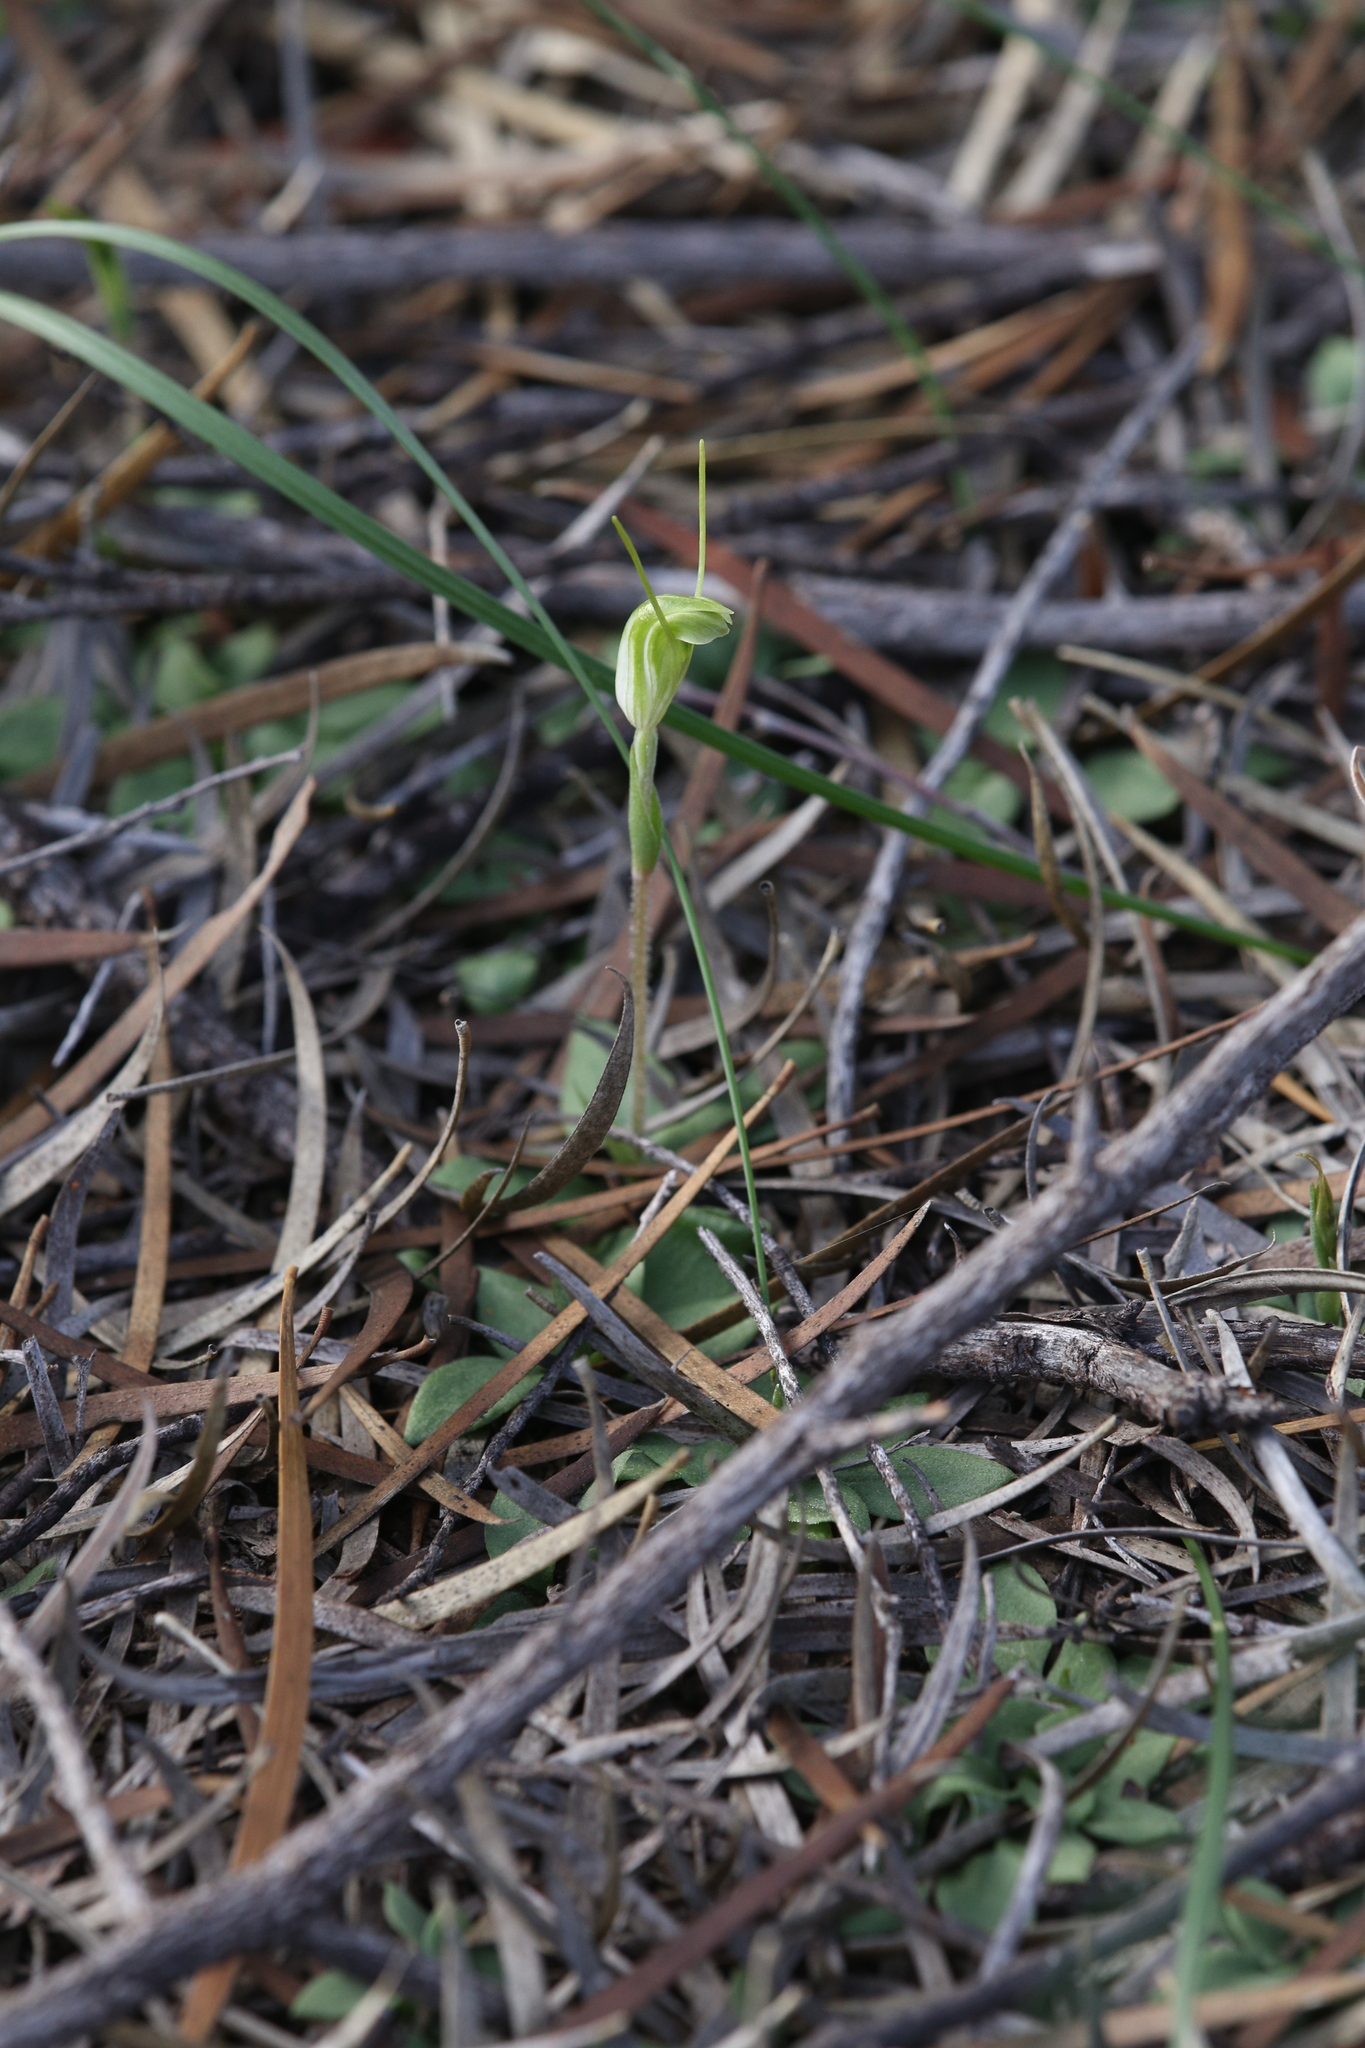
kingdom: Plantae
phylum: Tracheophyta
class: Liliopsida
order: Asparagales
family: Orchidaceae
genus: Pterostylis
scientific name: Pterostylis setulosa
